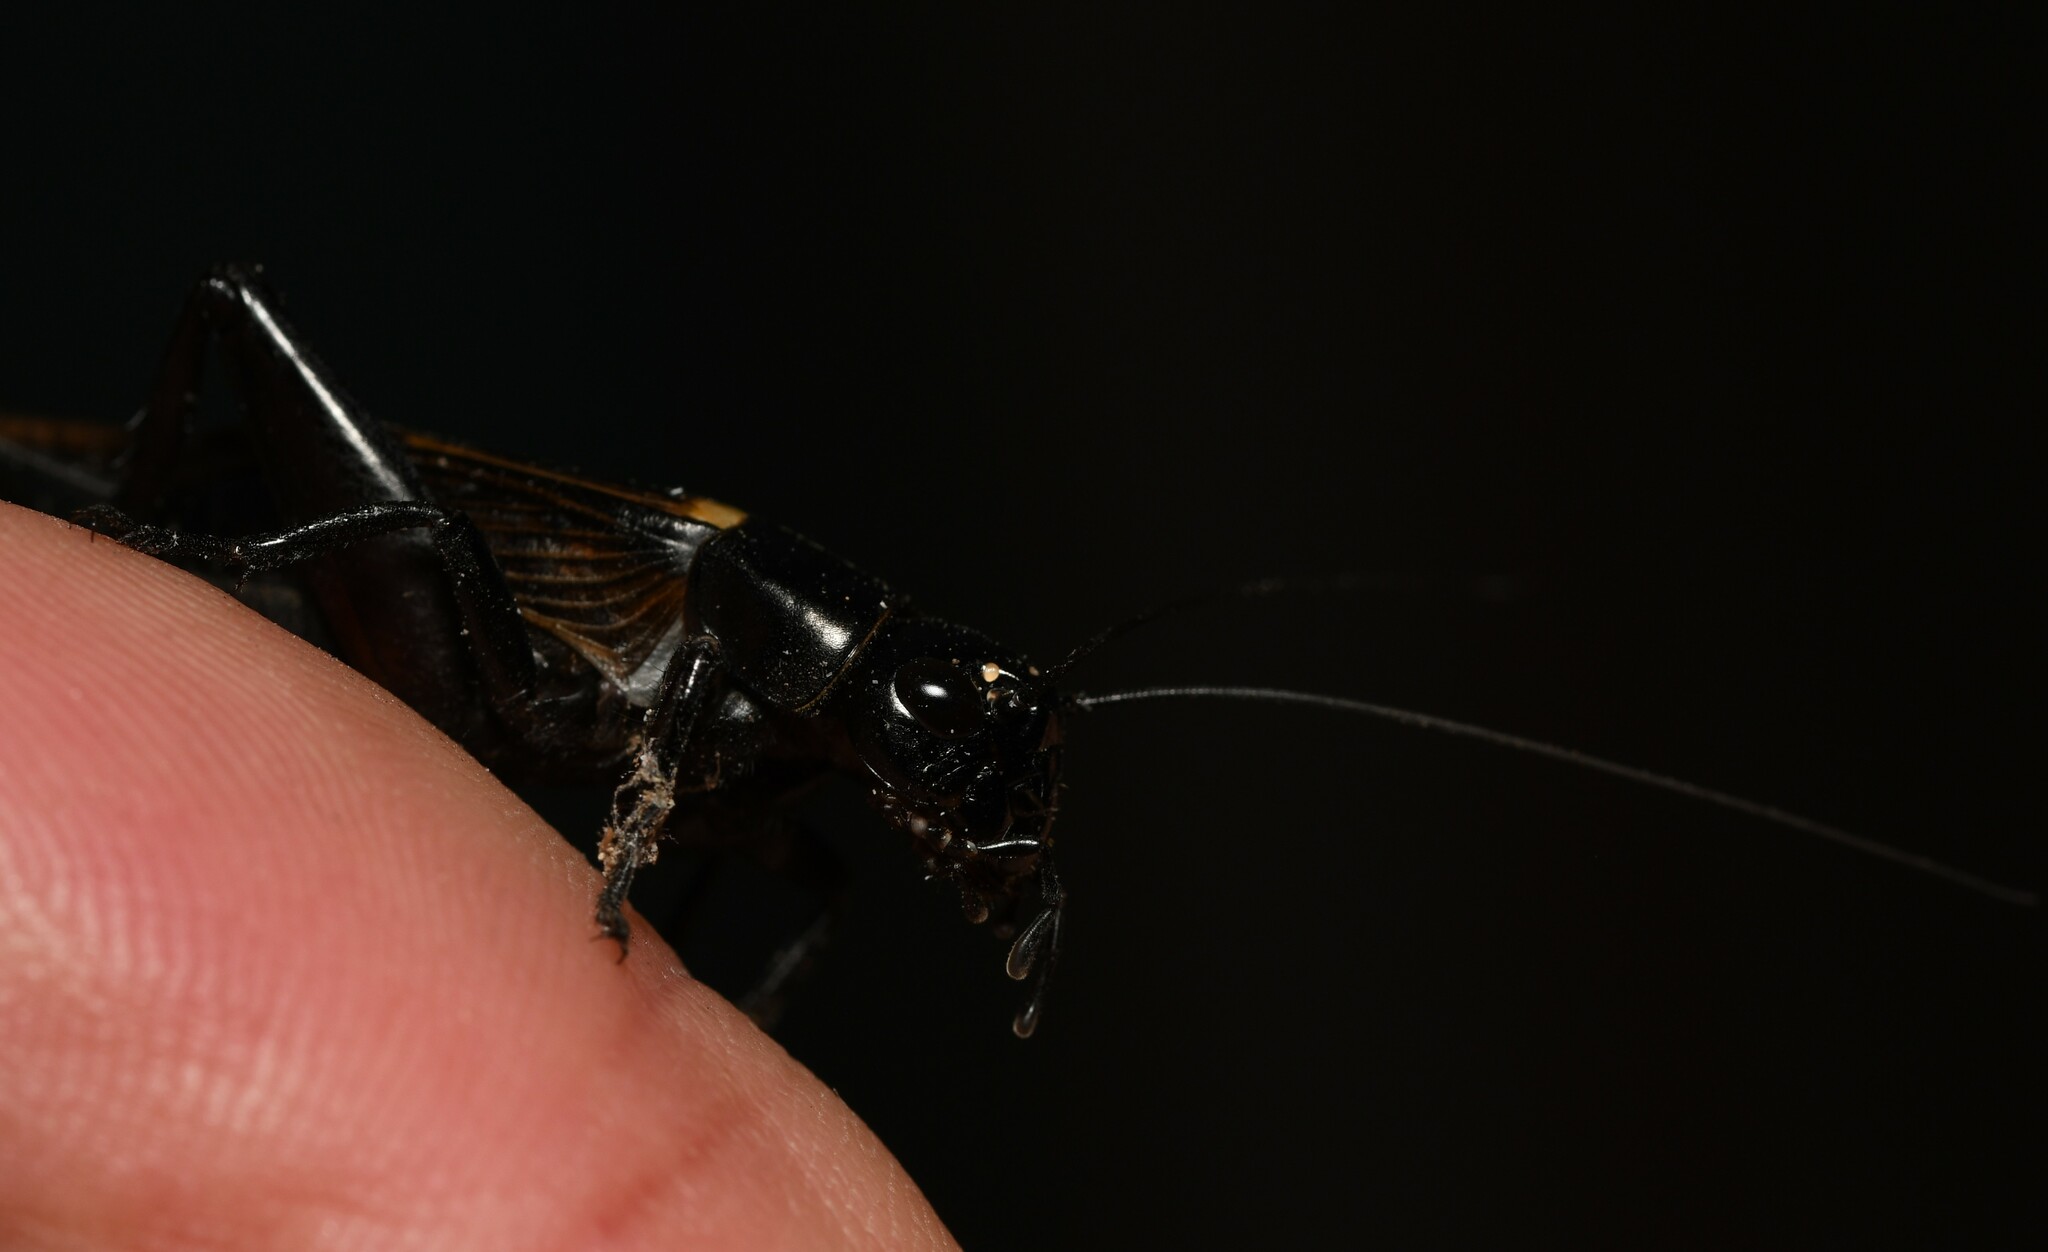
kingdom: Animalia
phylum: Arthropoda
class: Insecta
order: Orthoptera
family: Gryllidae
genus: Gryllus
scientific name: Gryllus bimaculatus
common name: Two-spotted cricket
